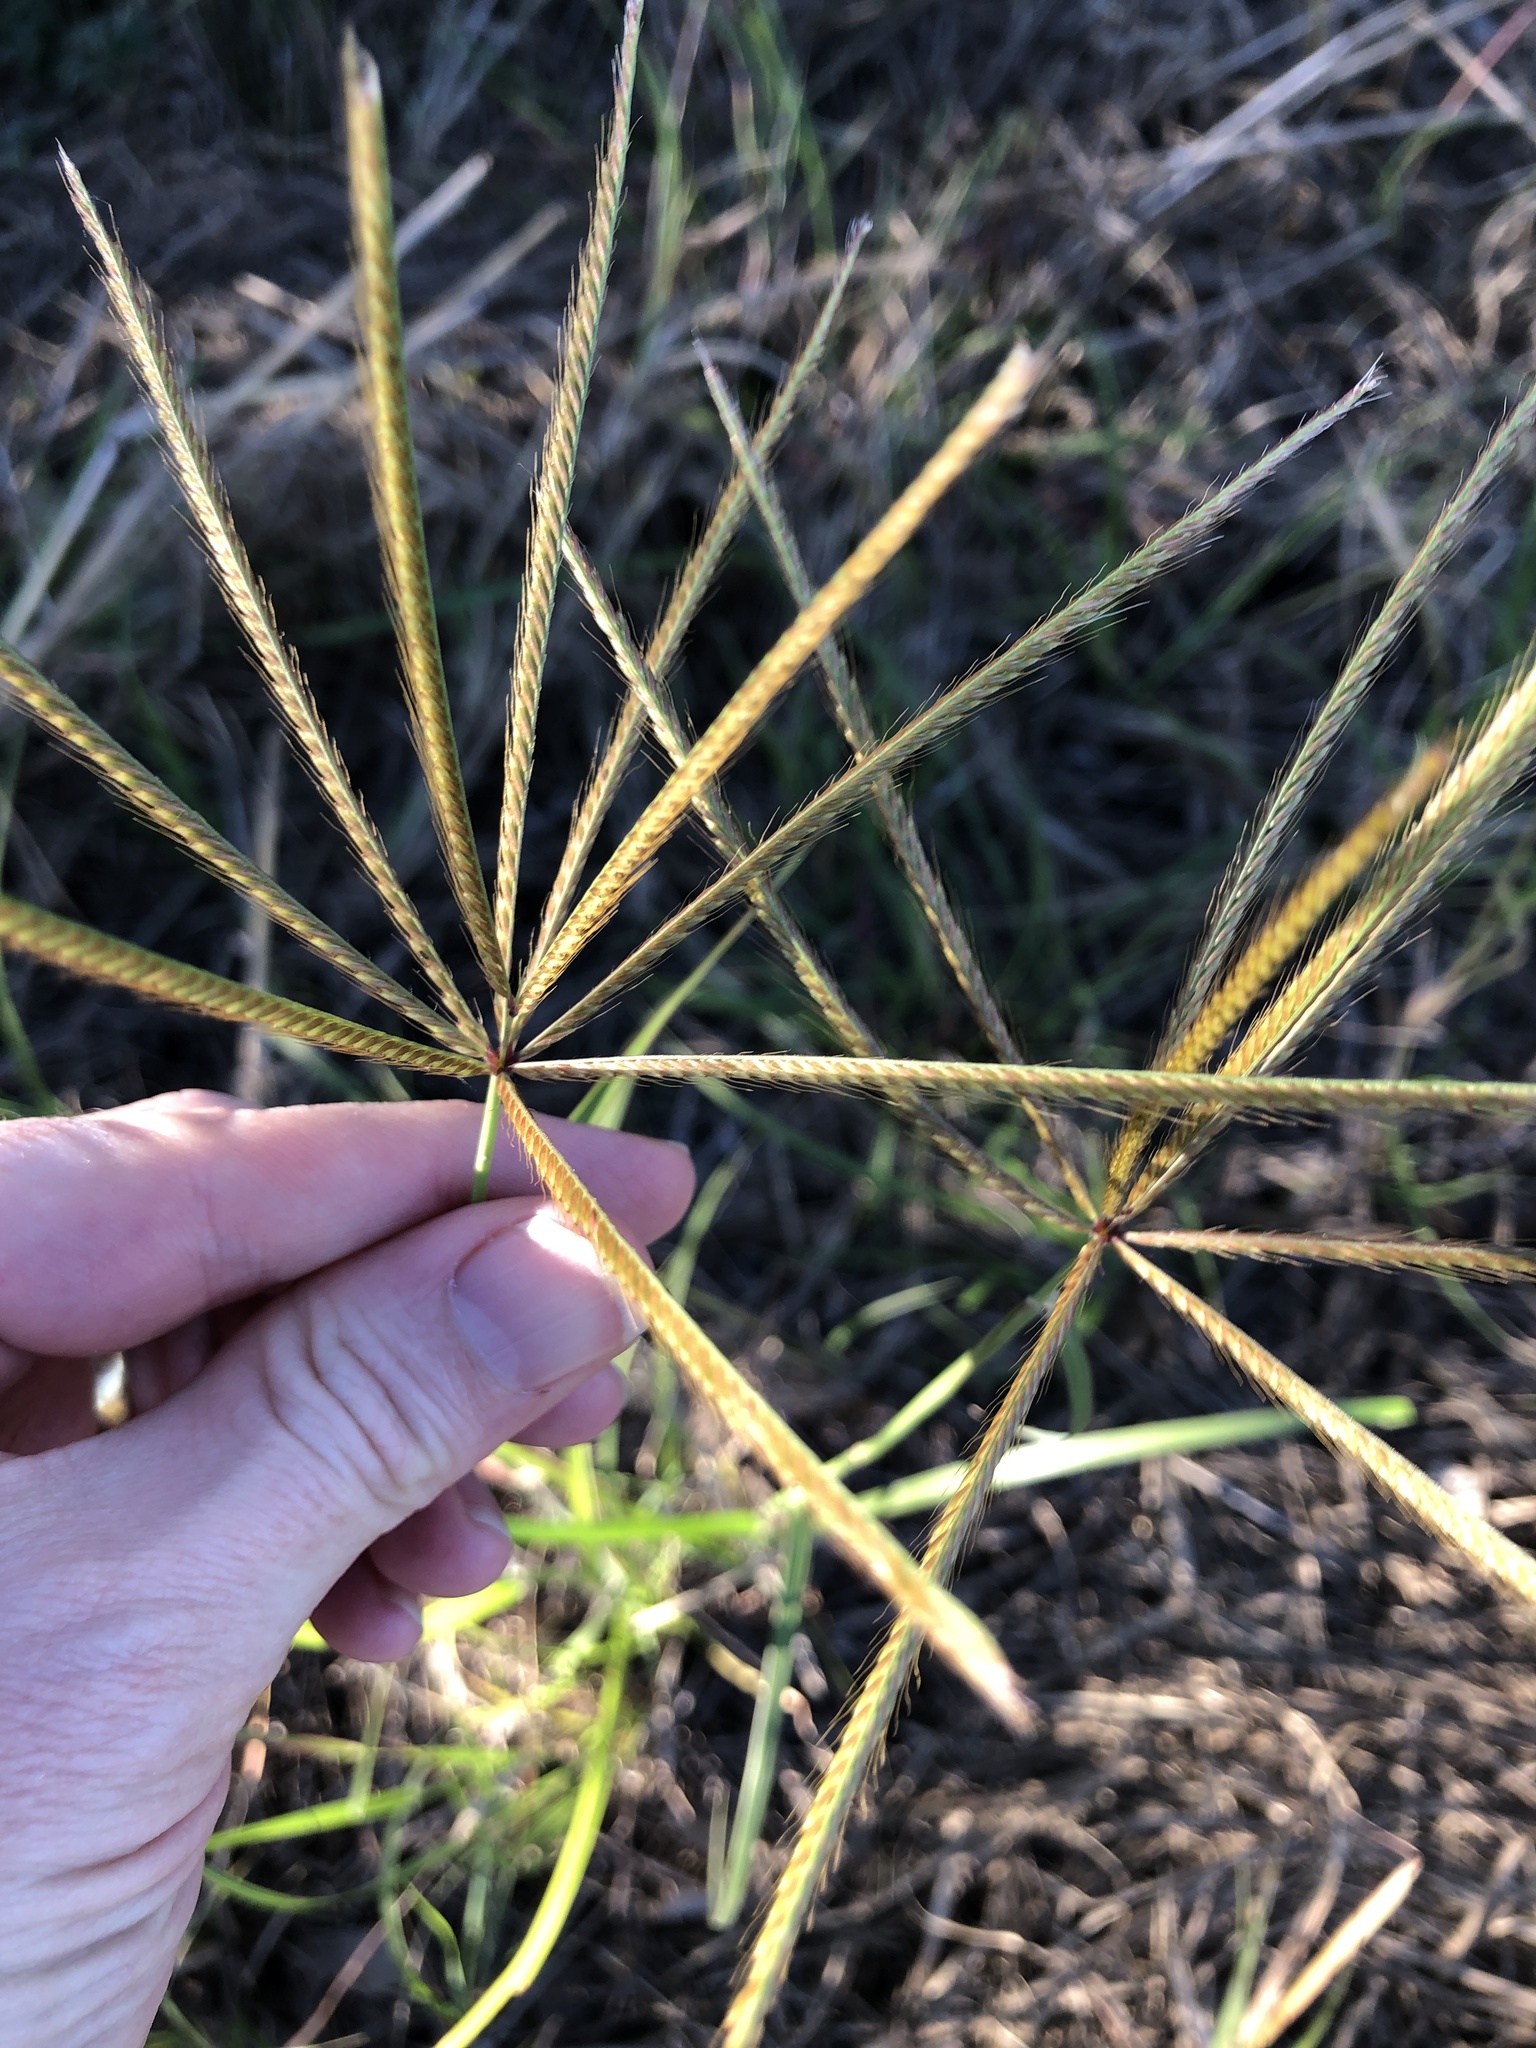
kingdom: Plantae
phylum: Tracheophyta
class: Liliopsida
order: Poales
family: Poaceae
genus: Chloris
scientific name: Chloris gayana
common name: Rhodes grass
